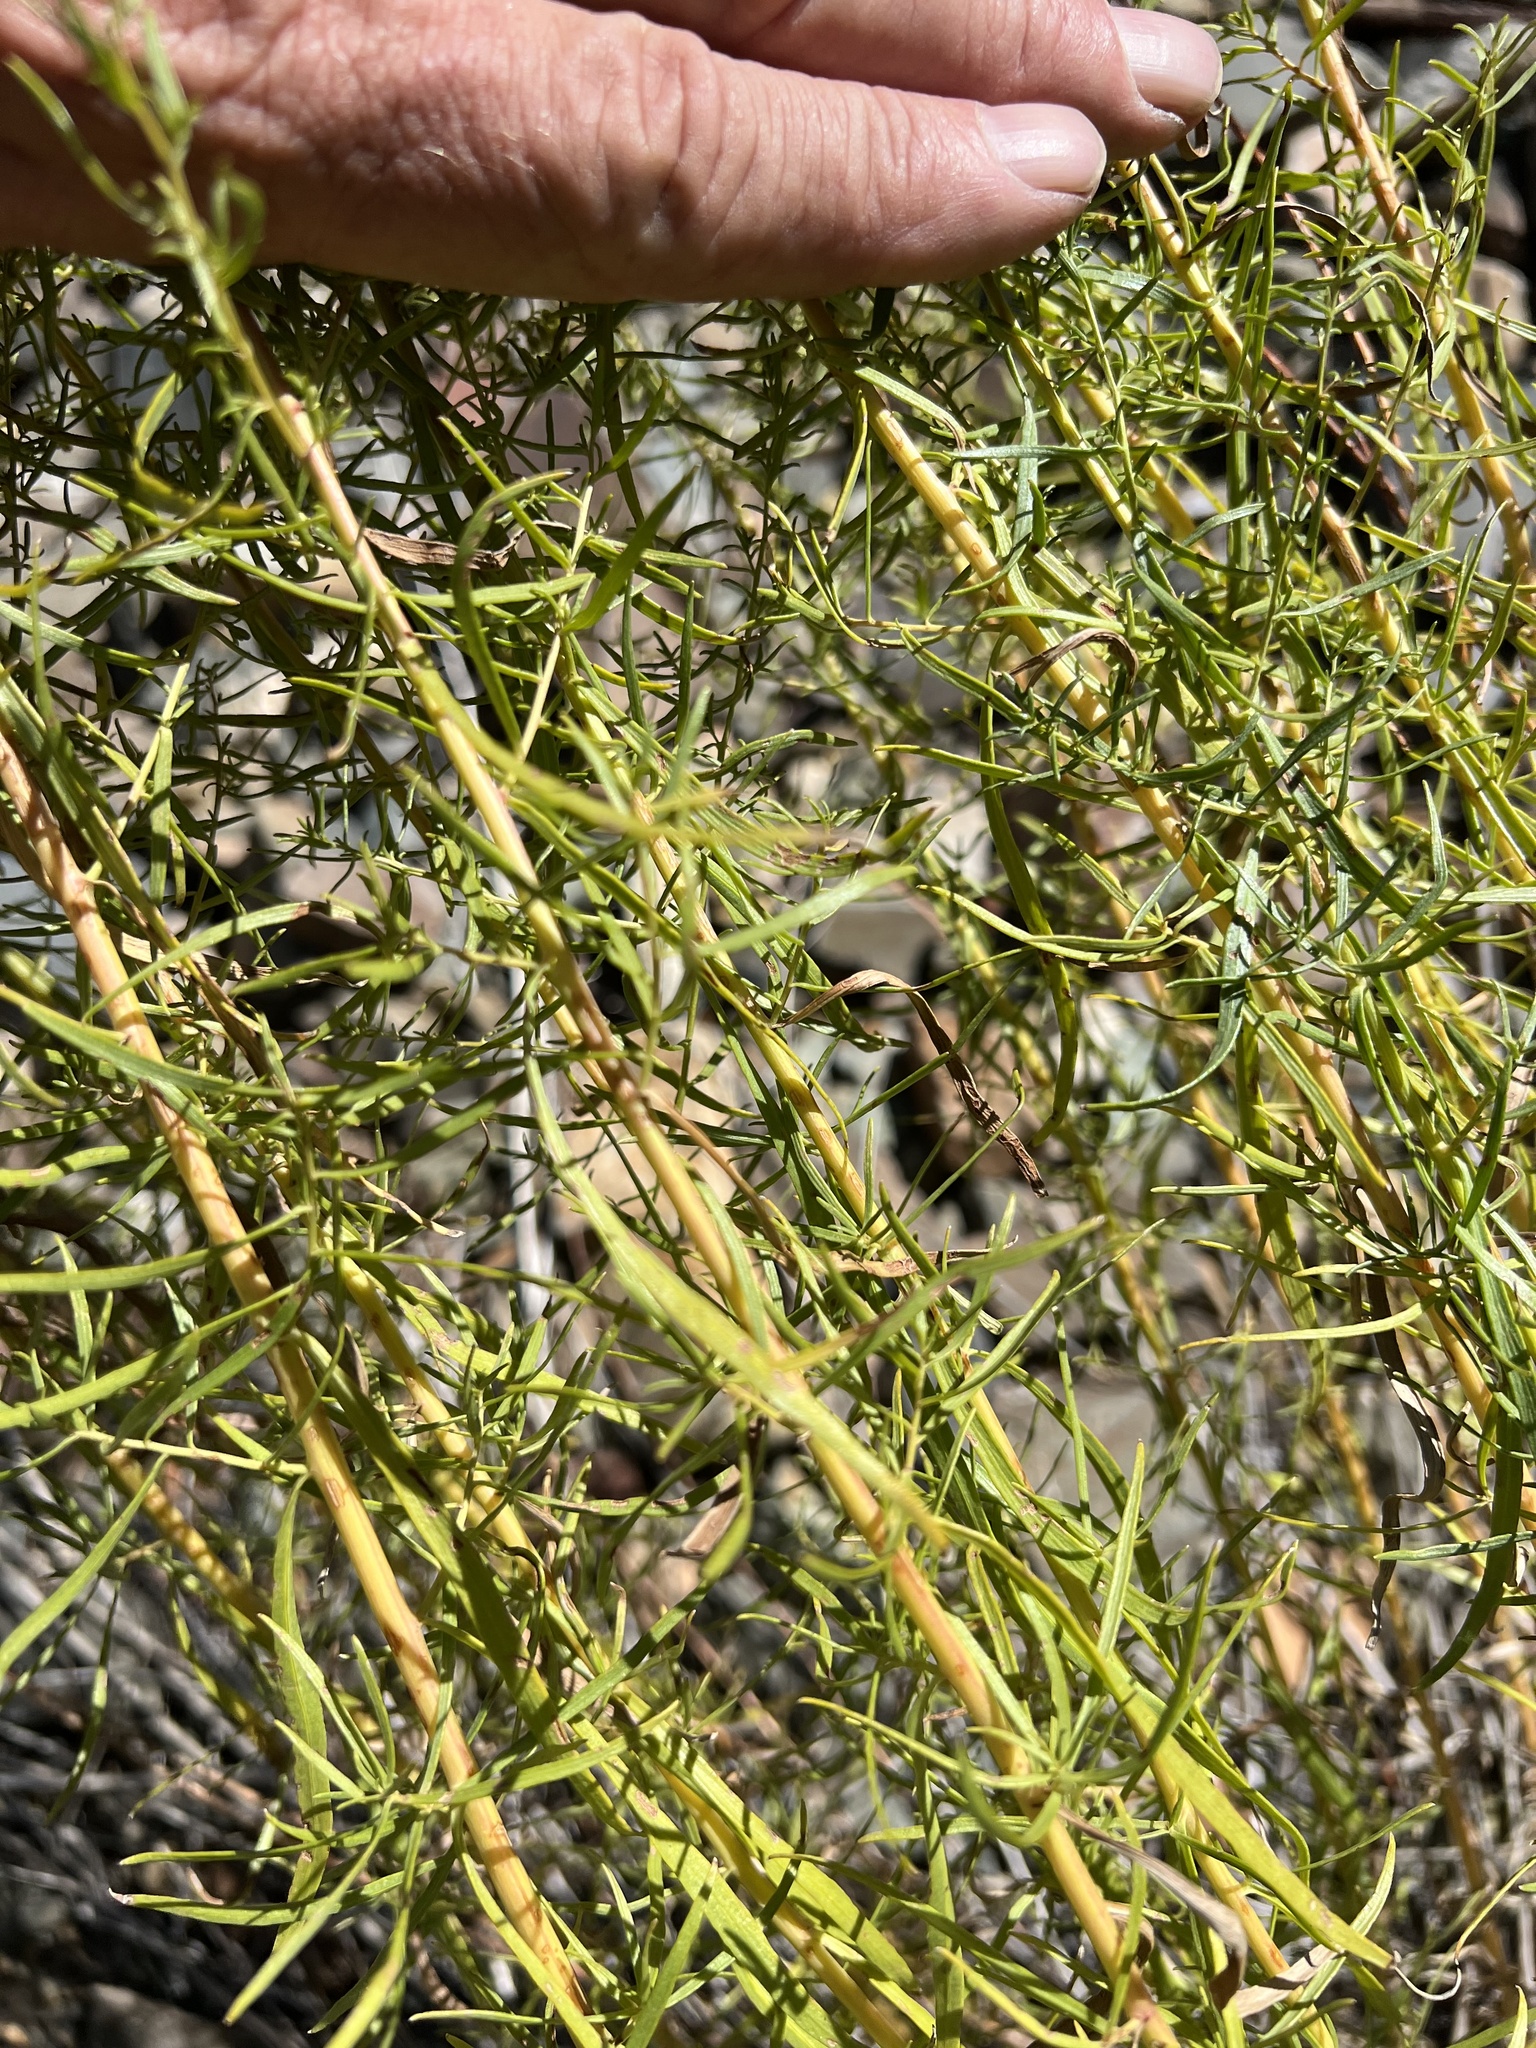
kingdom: Plantae
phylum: Tracheophyta
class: Magnoliopsida
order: Asterales
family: Asteraceae
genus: Artemisia
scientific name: Artemisia dracunculus
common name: Tarragon
